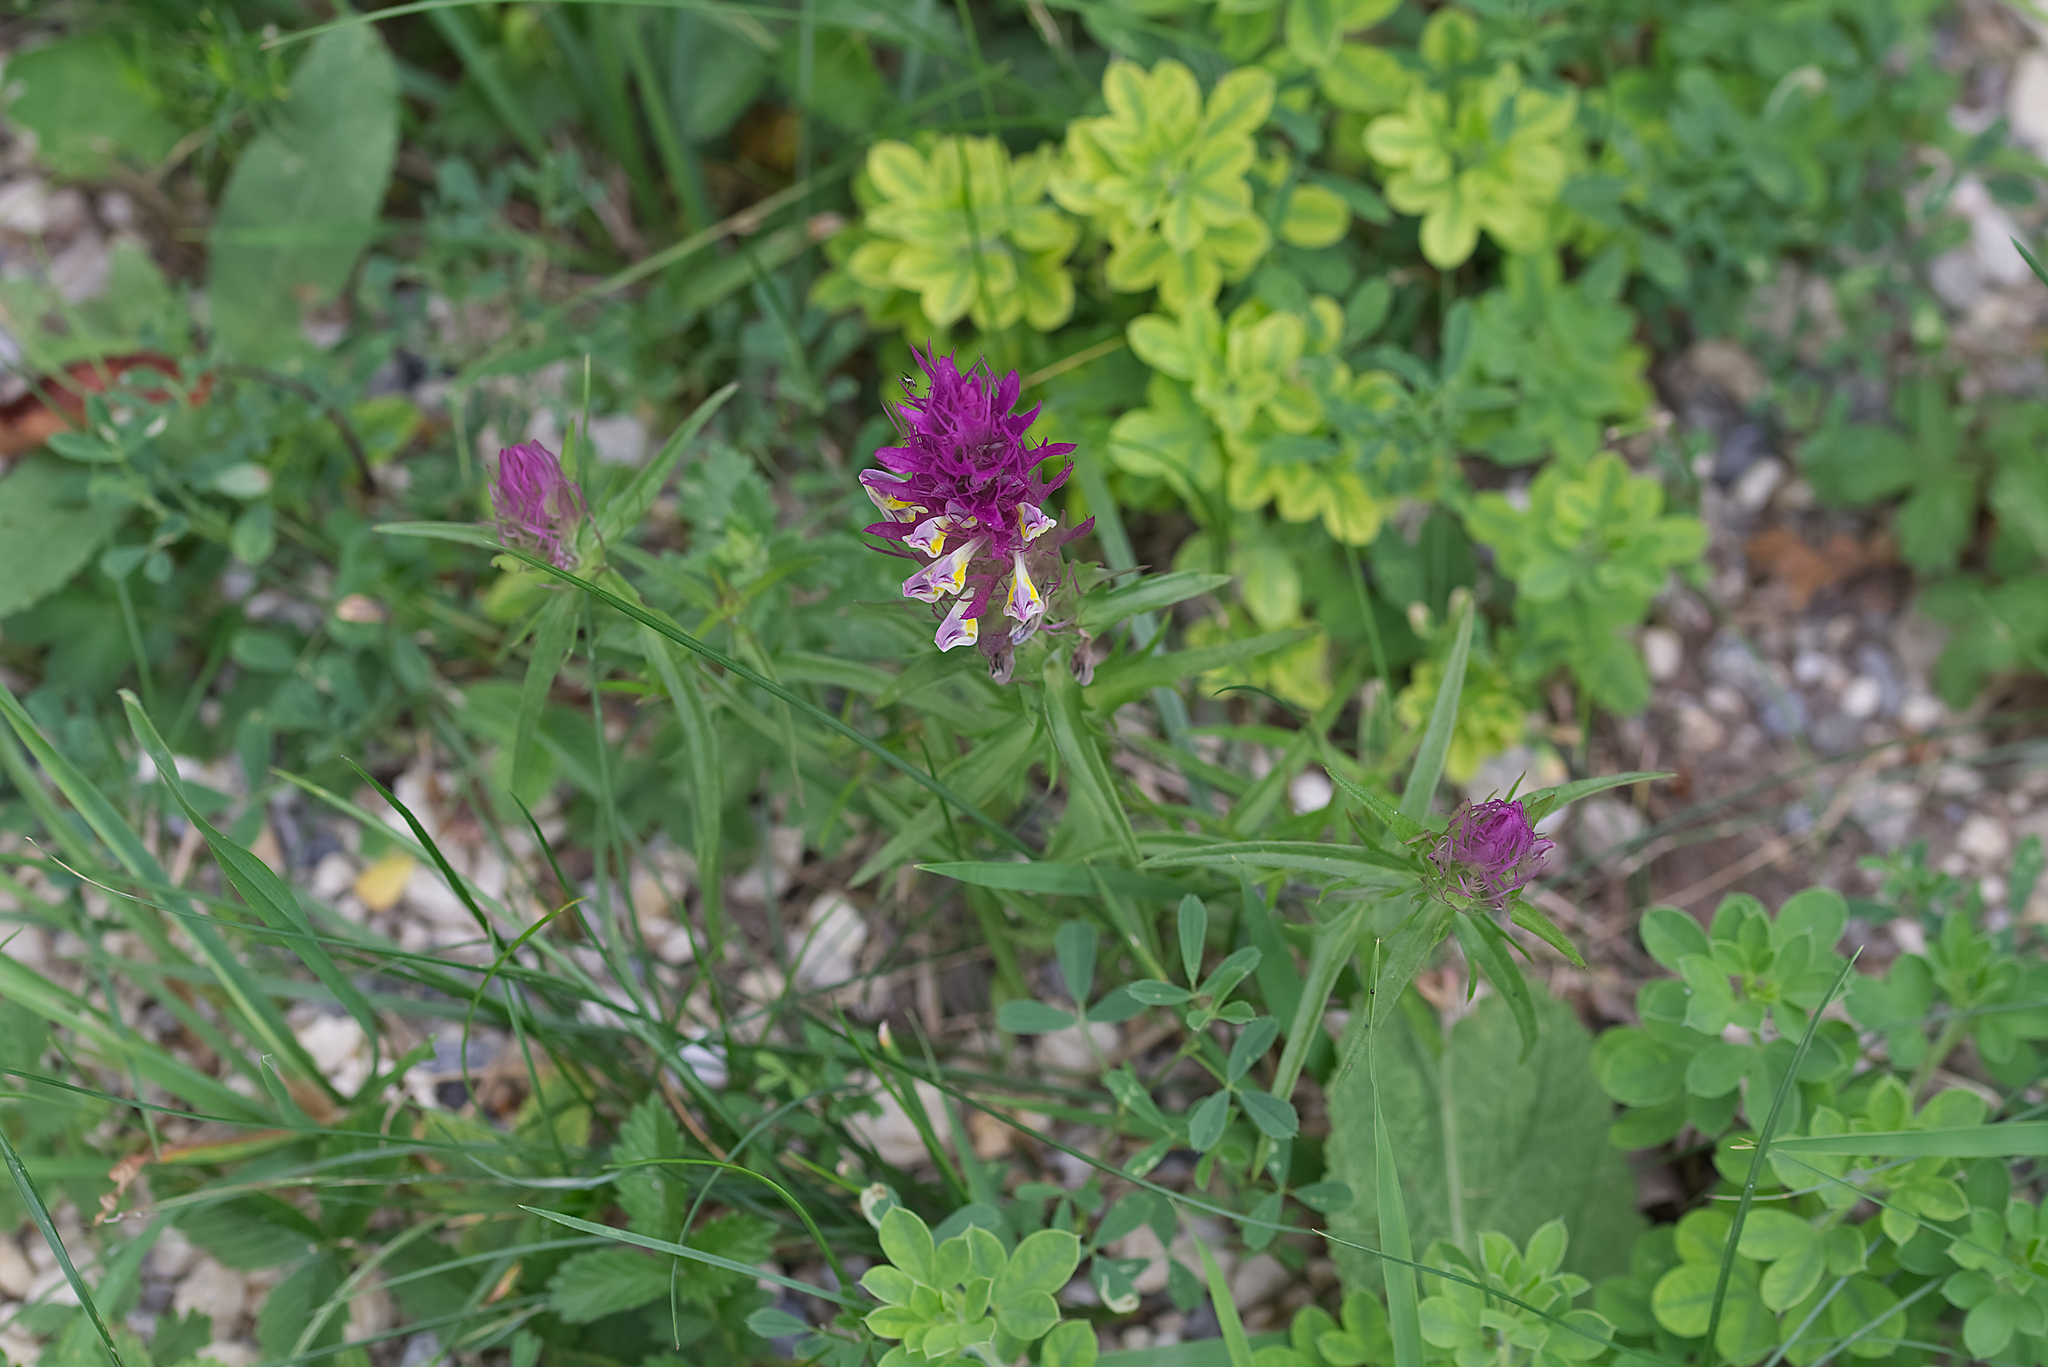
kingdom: Plantae
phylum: Tracheophyta
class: Magnoliopsida
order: Lamiales
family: Orobanchaceae
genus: Melampyrum
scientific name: Melampyrum arvense
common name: Field cow-wheat
